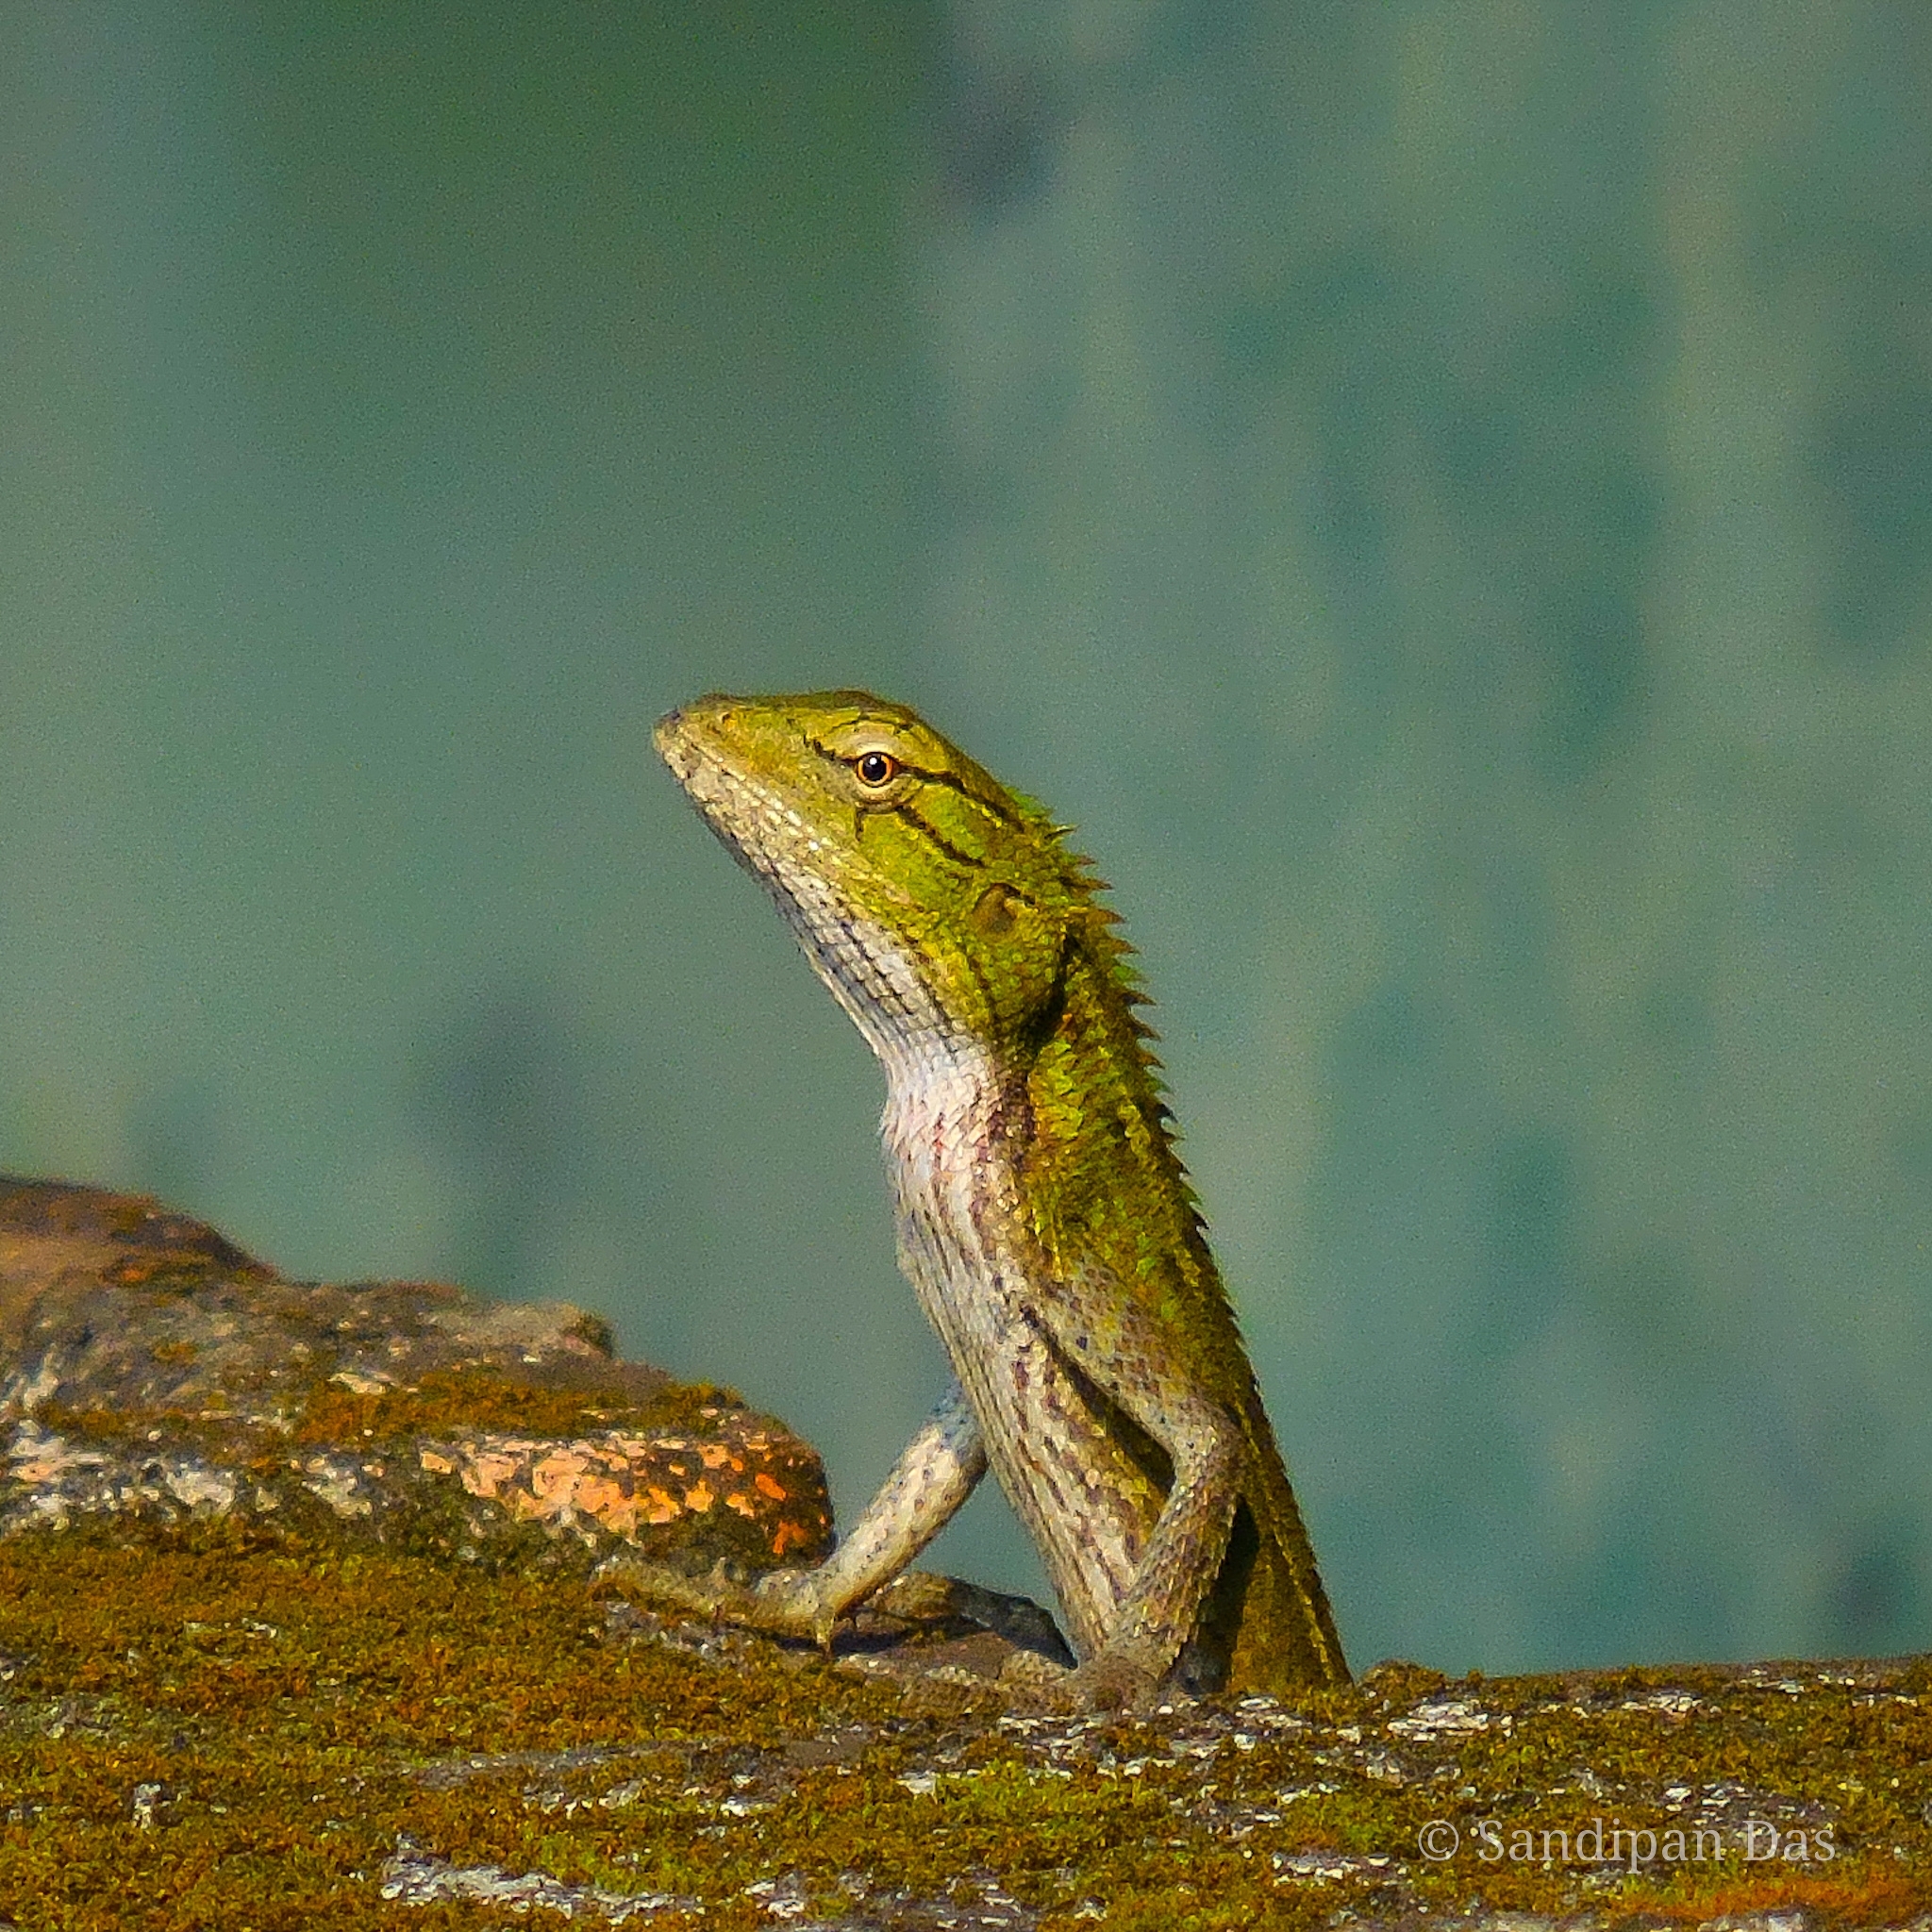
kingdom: Animalia
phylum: Chordata
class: Squamata
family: Agamidae
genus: Calotes
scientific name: Calotes versicolor
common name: Oriental garden lizard
